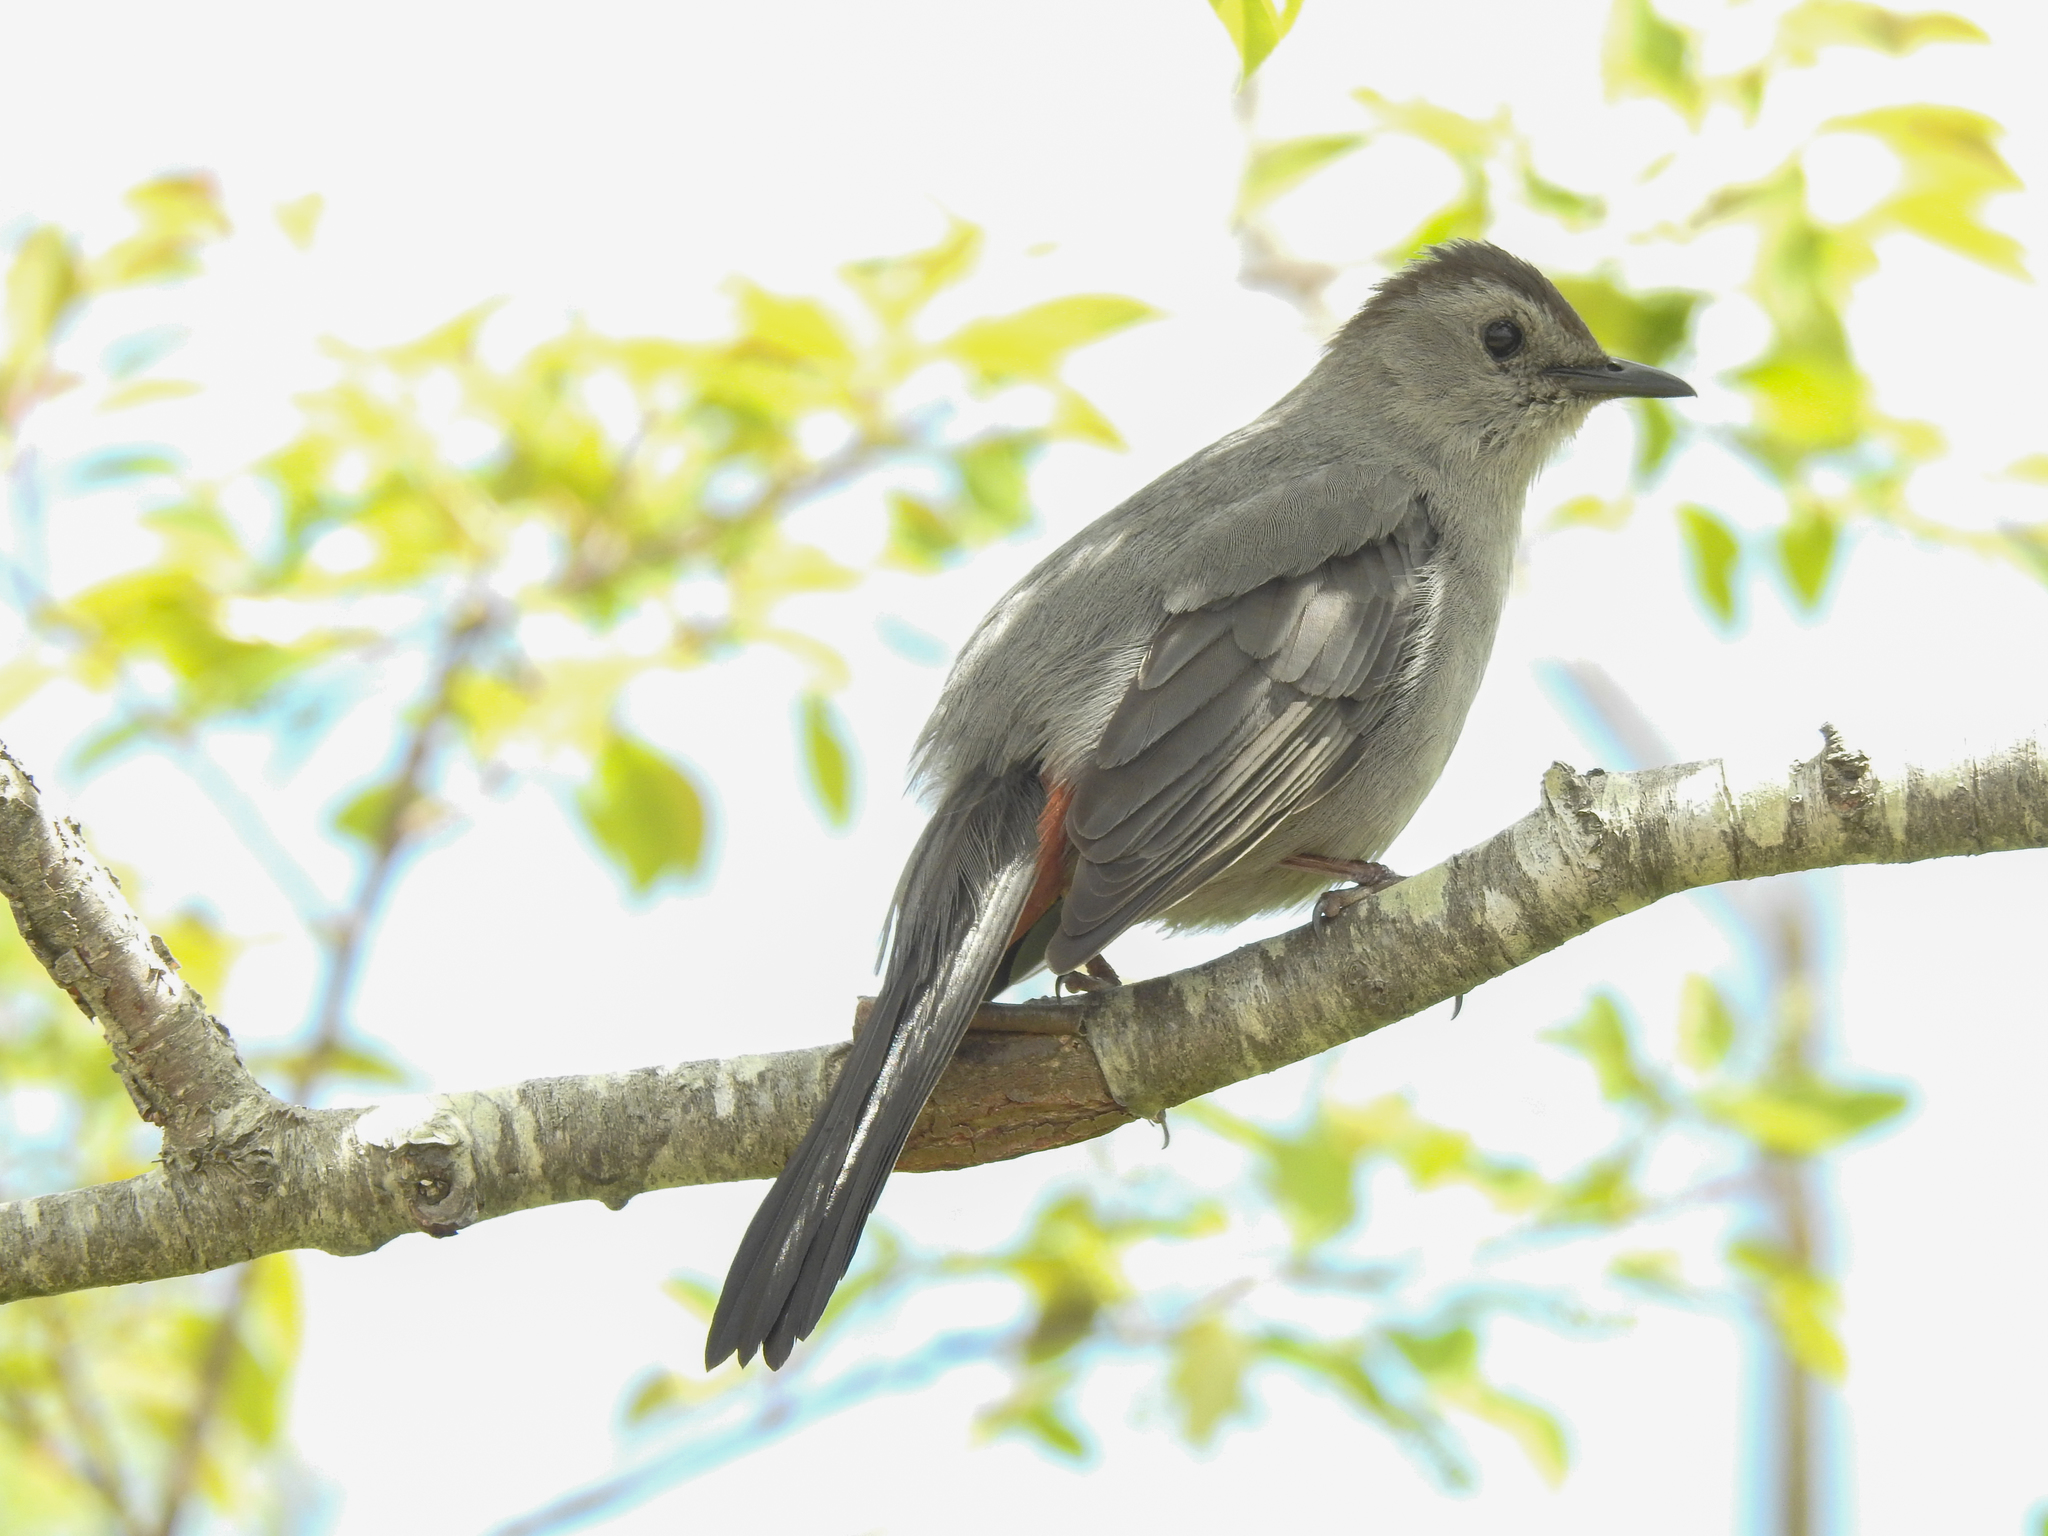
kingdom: Animalia
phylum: Chordata
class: Aves
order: Passeriformes
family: Mimidae
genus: Dumetella
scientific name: Dumetella carolinensis
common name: Gray catbird
